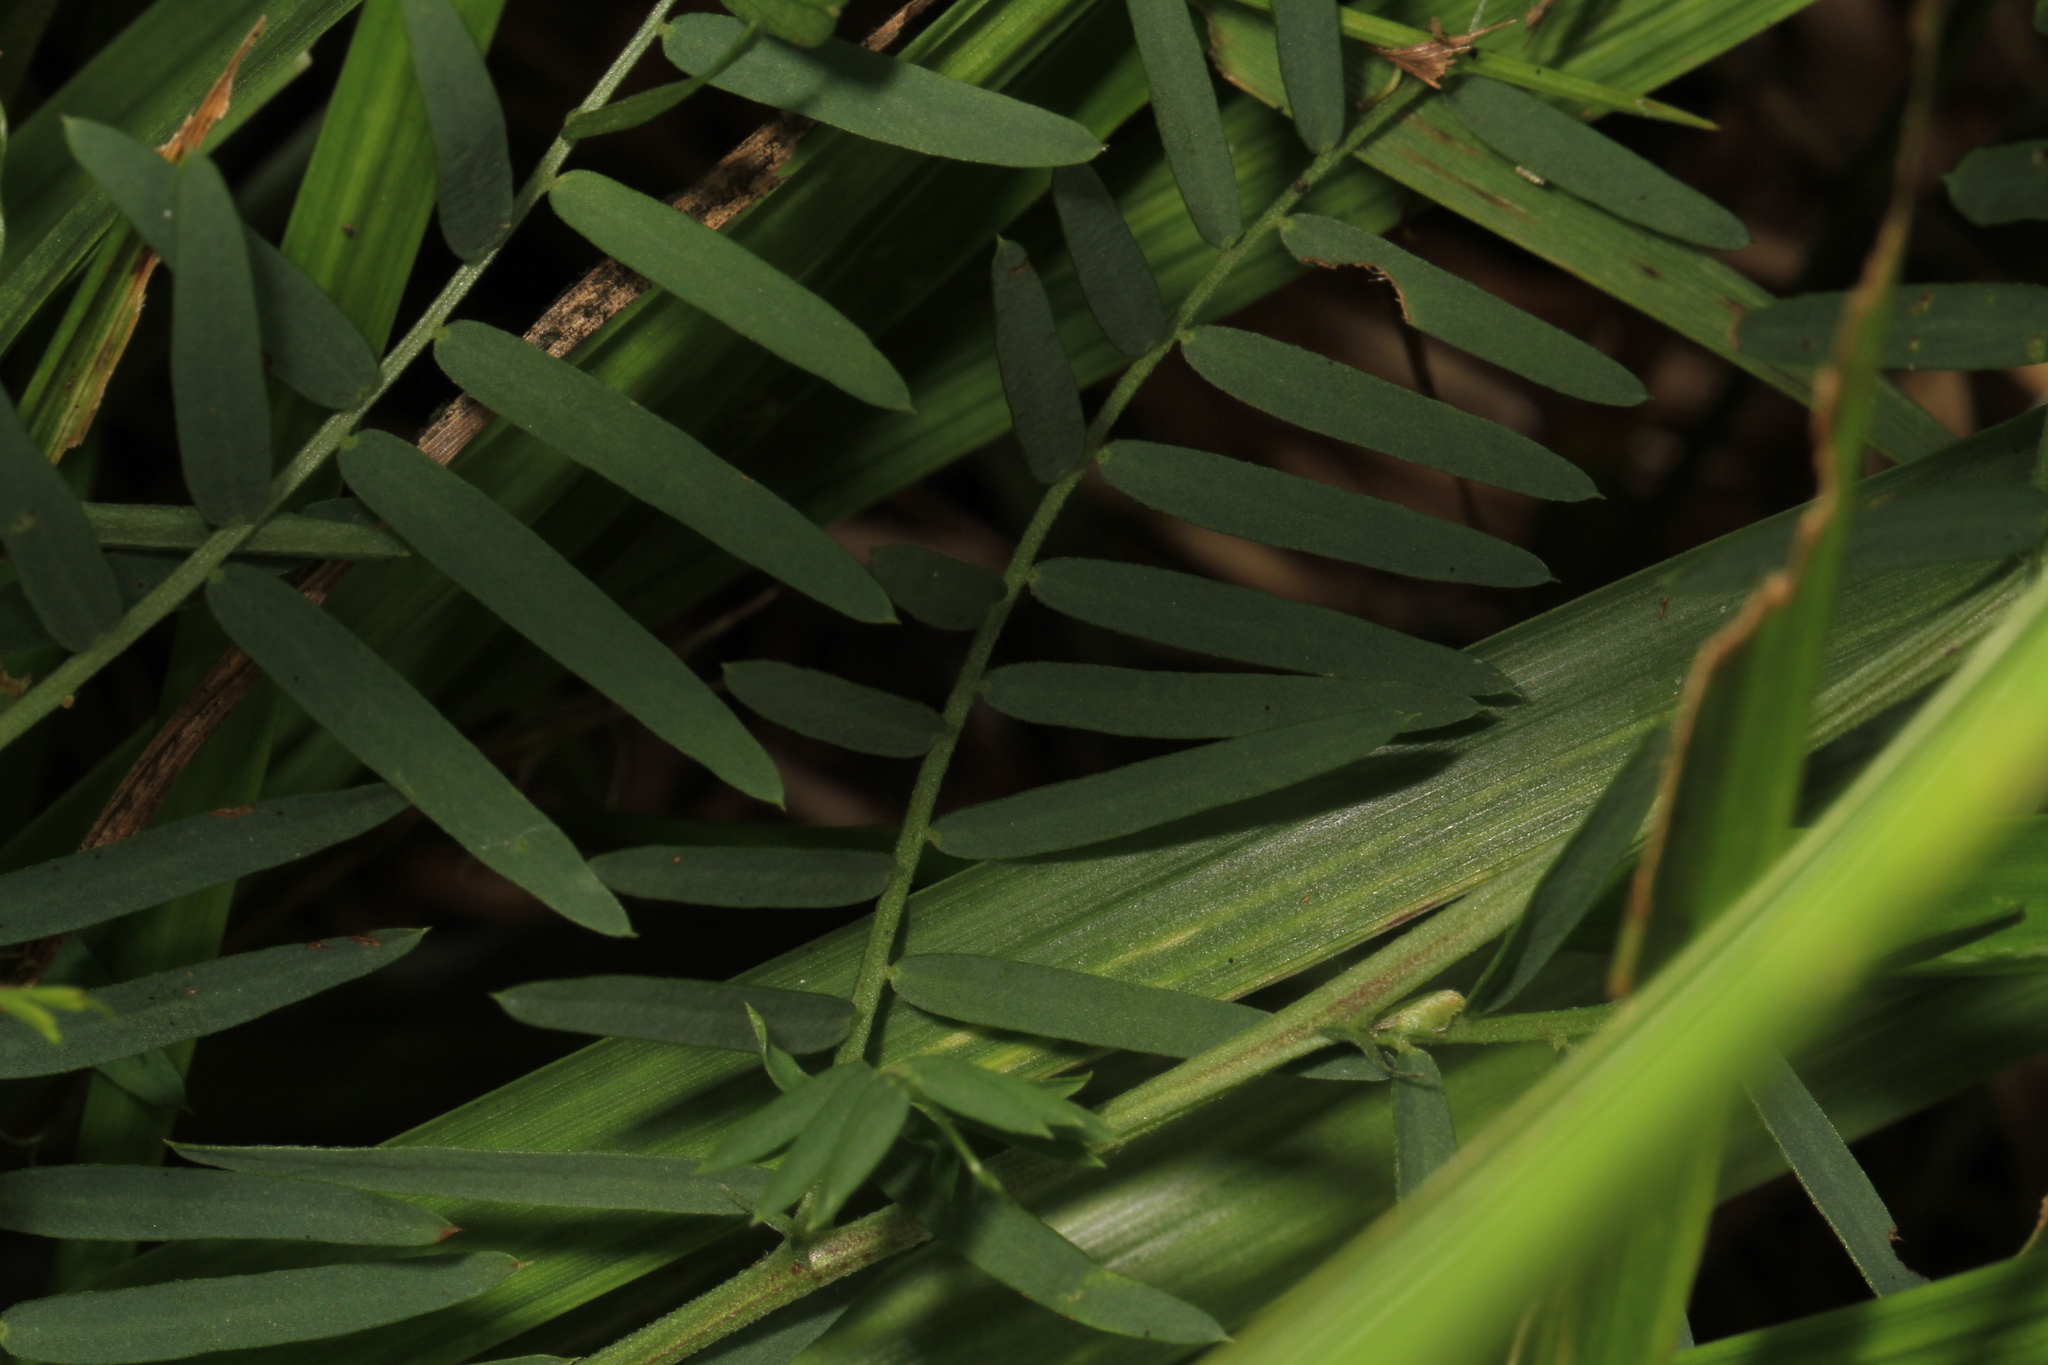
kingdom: Plantae
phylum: Tracheophyta
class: Magnoliopsida
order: Fabales
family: Fabaceae
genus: Vicia
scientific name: Vicia cracca
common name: Bird vetch
